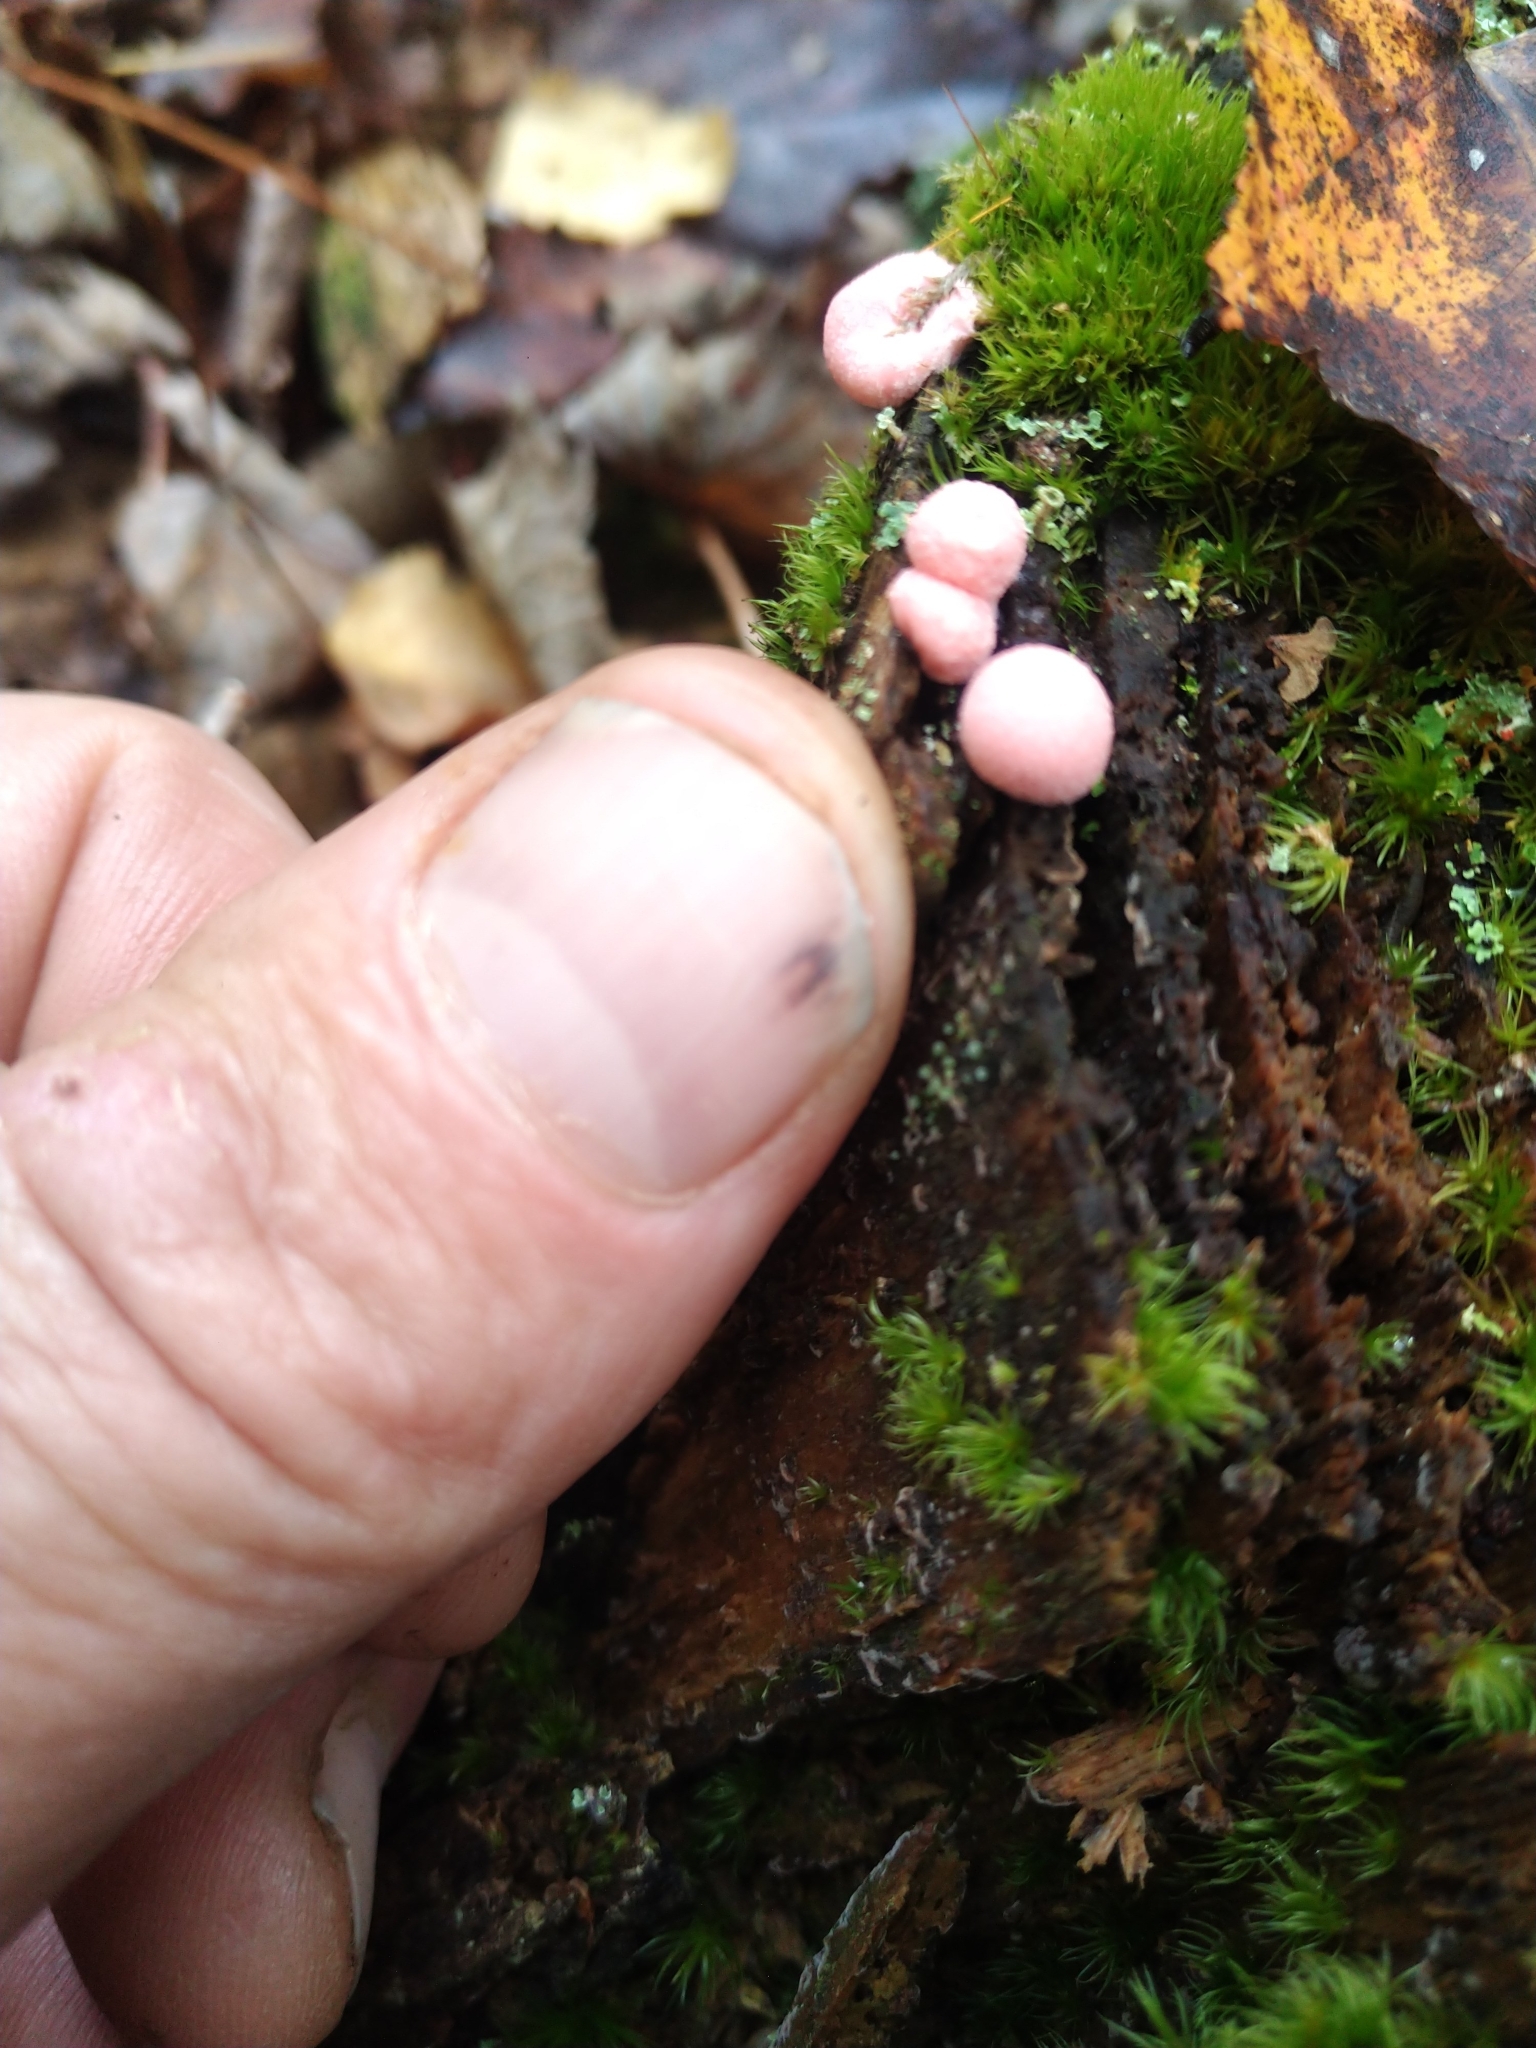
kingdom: Protozoa
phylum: Mycetozoa
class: Myxomycetes
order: Cribrariales
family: Tubiferaceae
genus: Lycogala
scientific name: Lycogala epidendrum
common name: Wolf's milk
